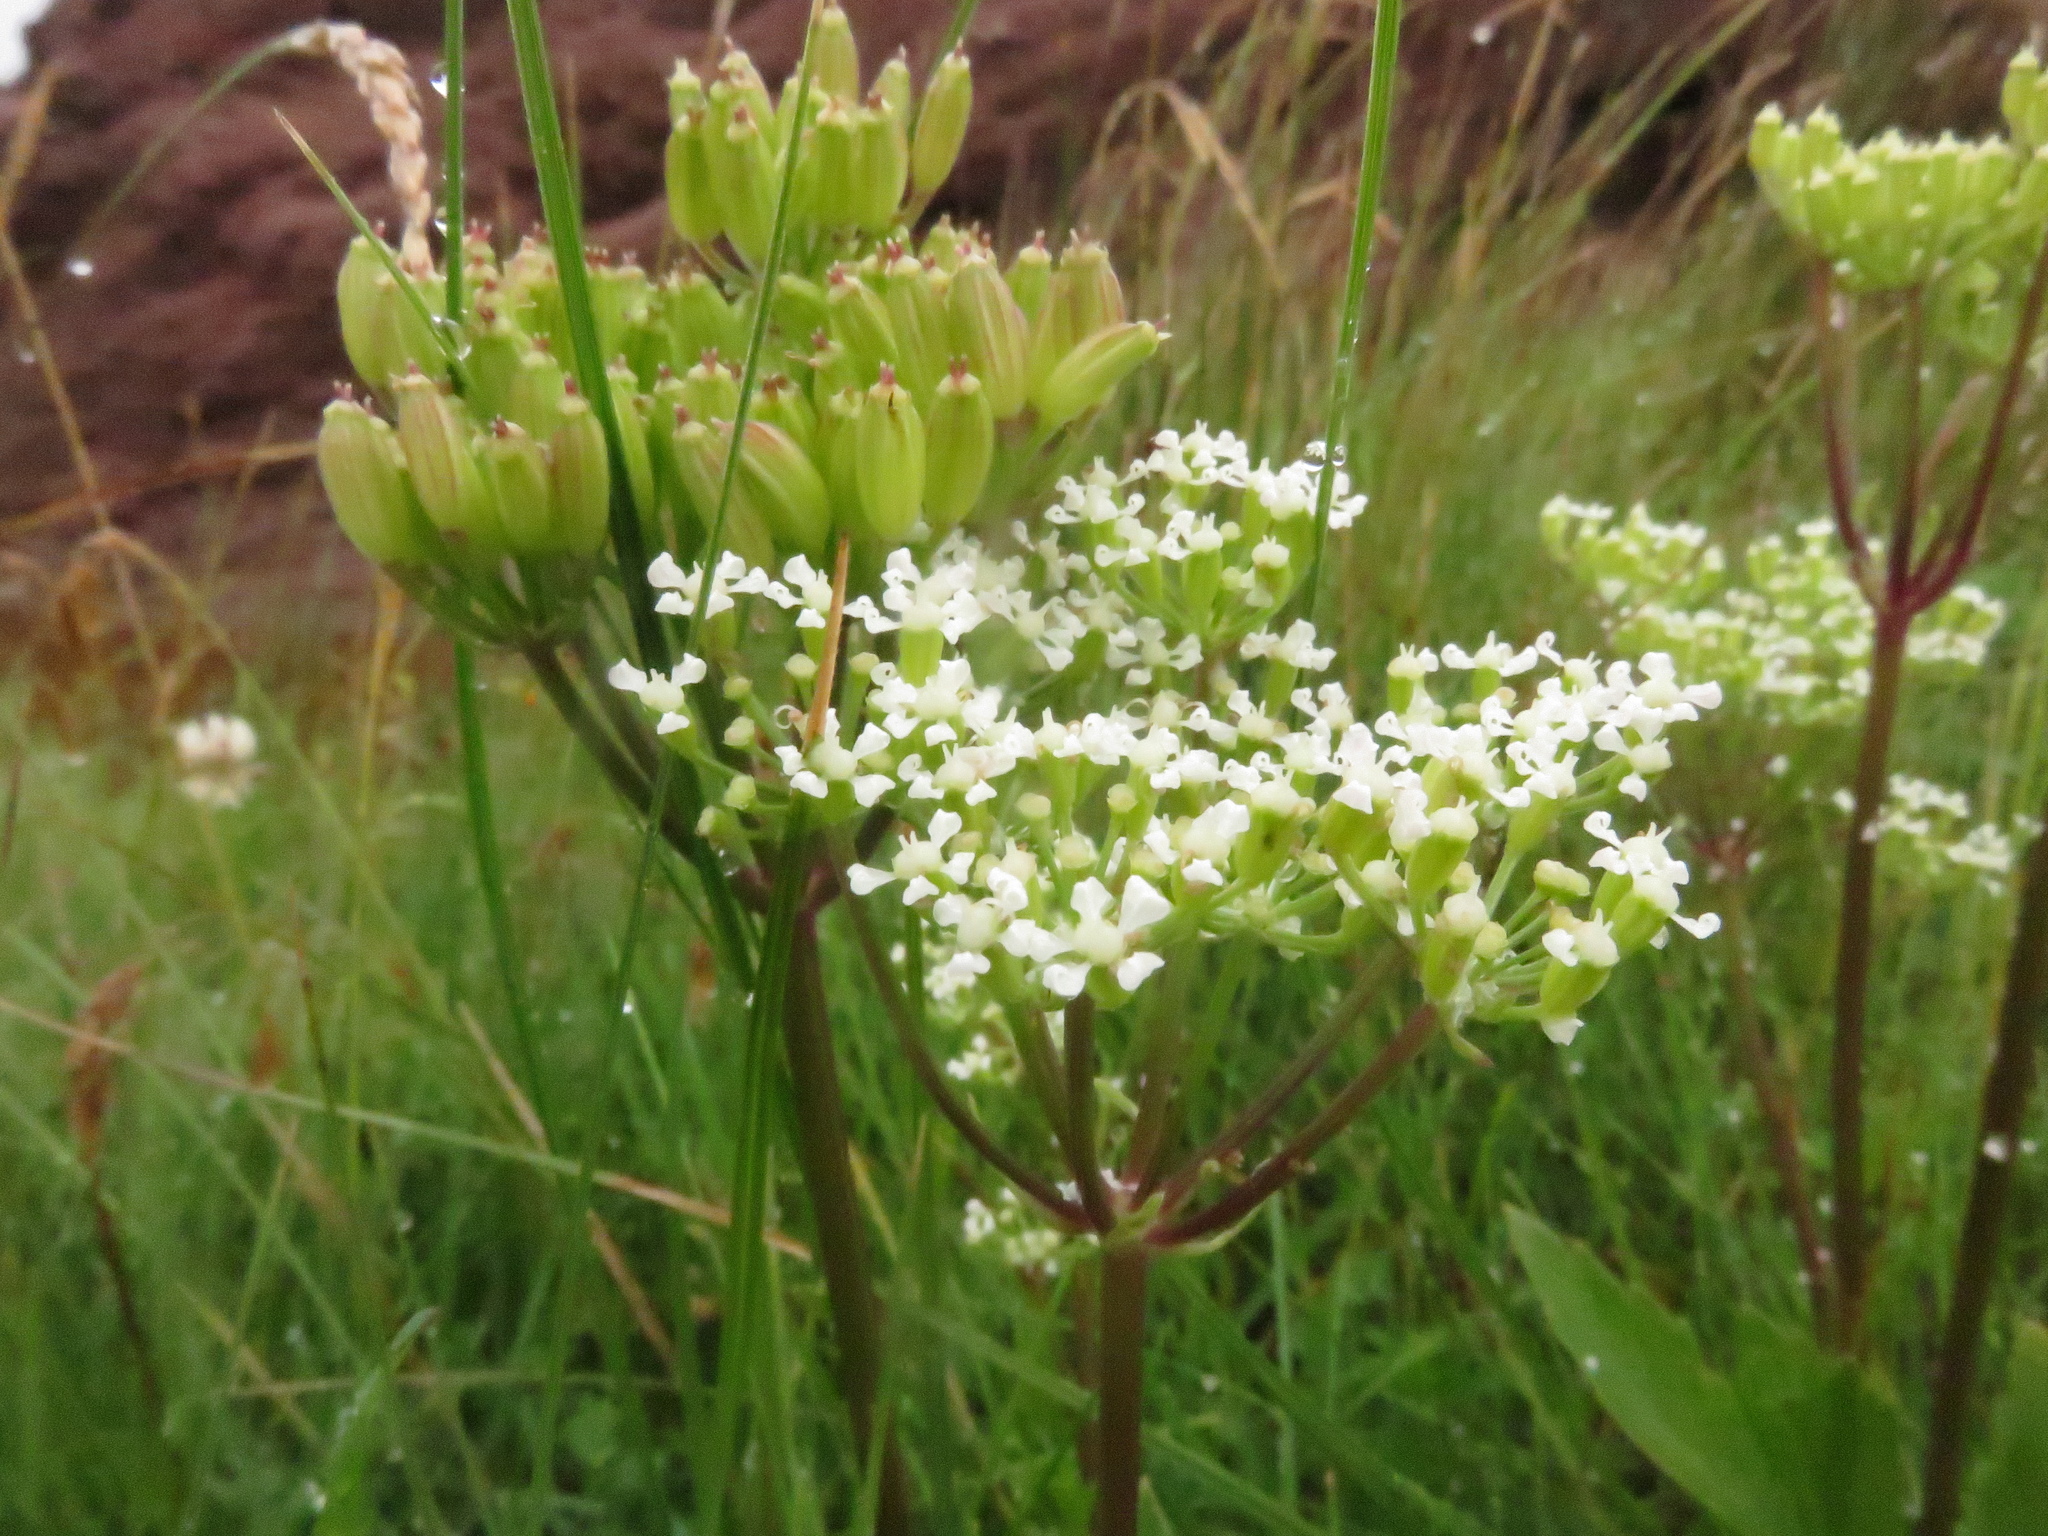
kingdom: Plantae
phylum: Tracheophyta
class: Magnoliopsida
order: Apiales
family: Apiaceae
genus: Ligusticum
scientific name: Ligusticum scothicum
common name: Beach lovage
